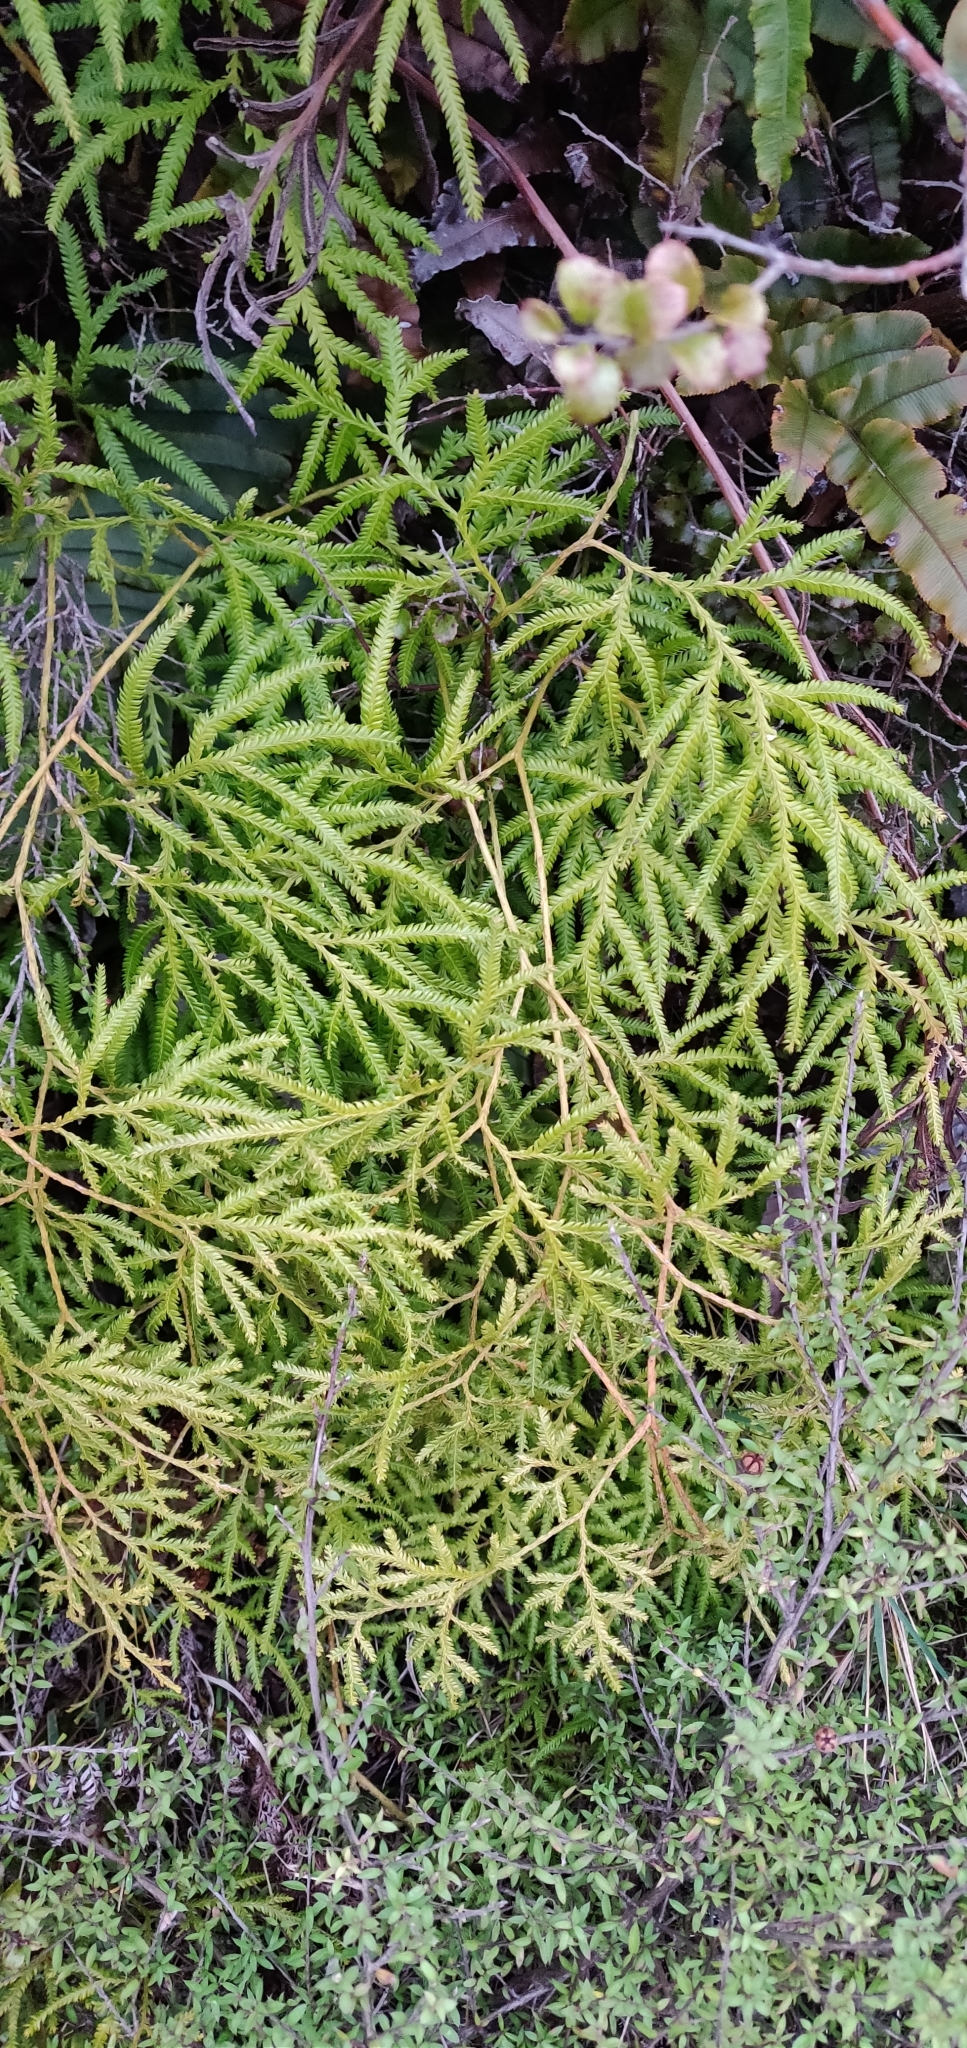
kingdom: Plantae
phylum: Tracheophyta
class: Lycopodiopsida
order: Lycopodiales
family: Lycopodiaceae
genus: Lycopodium
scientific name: Lycopodium volubile
